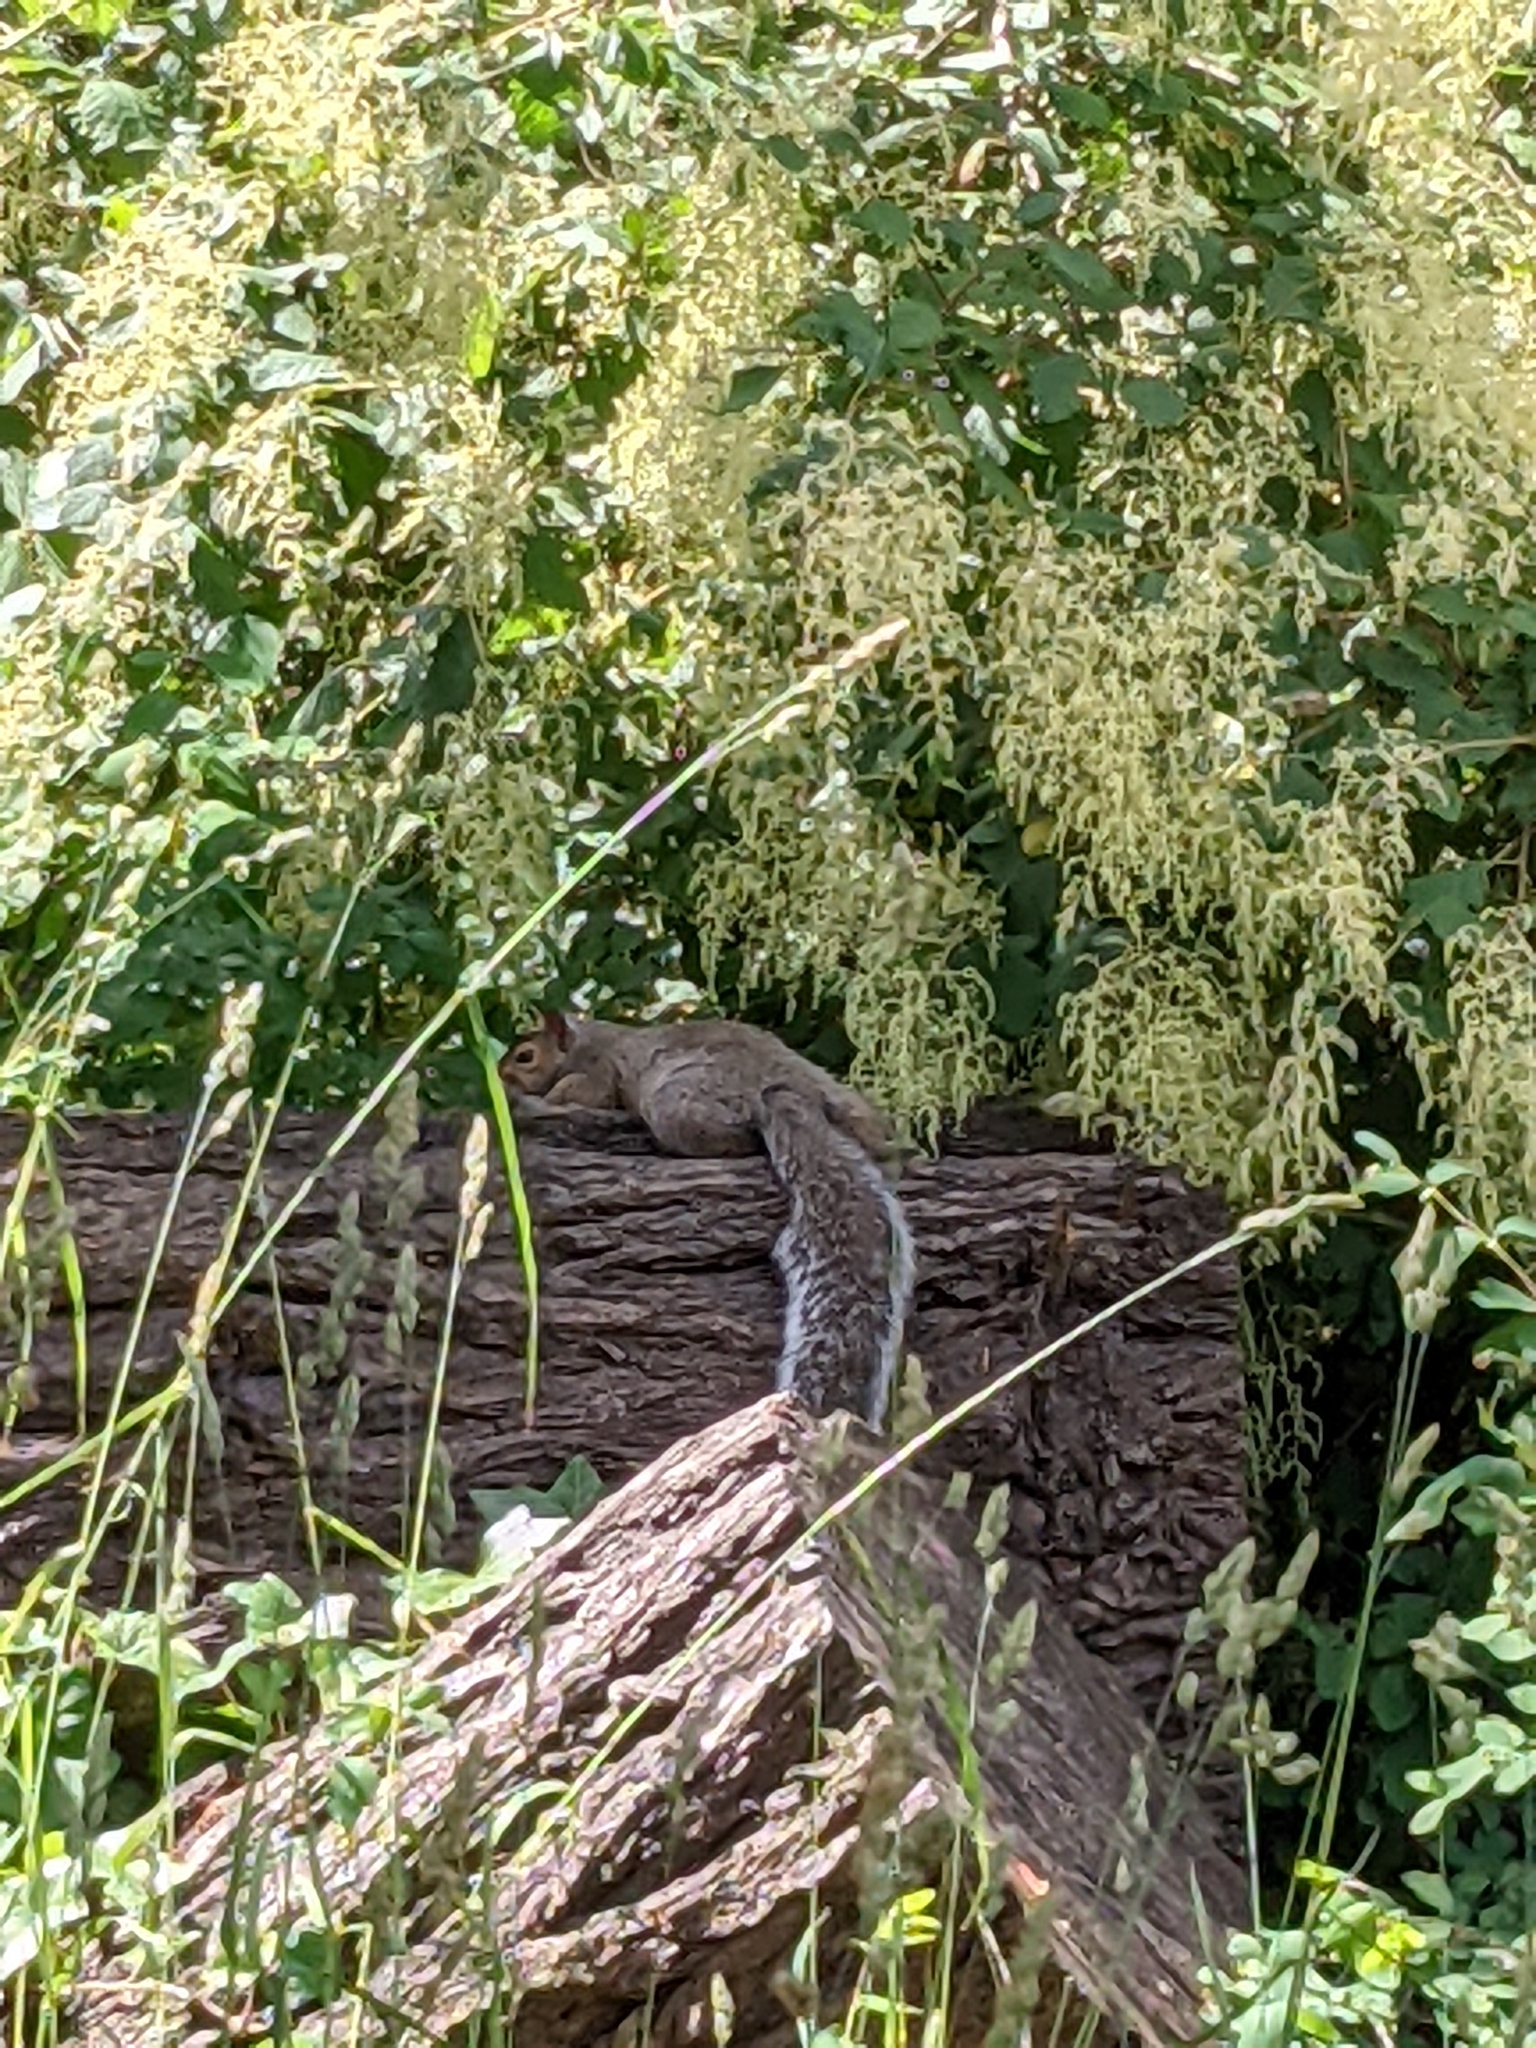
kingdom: Animalia
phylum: Chordata
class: Mammalia
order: Rodentia
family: Sciuridae
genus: Sciurus
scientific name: Sciurus carolinensis
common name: Eastern gray squirrel
